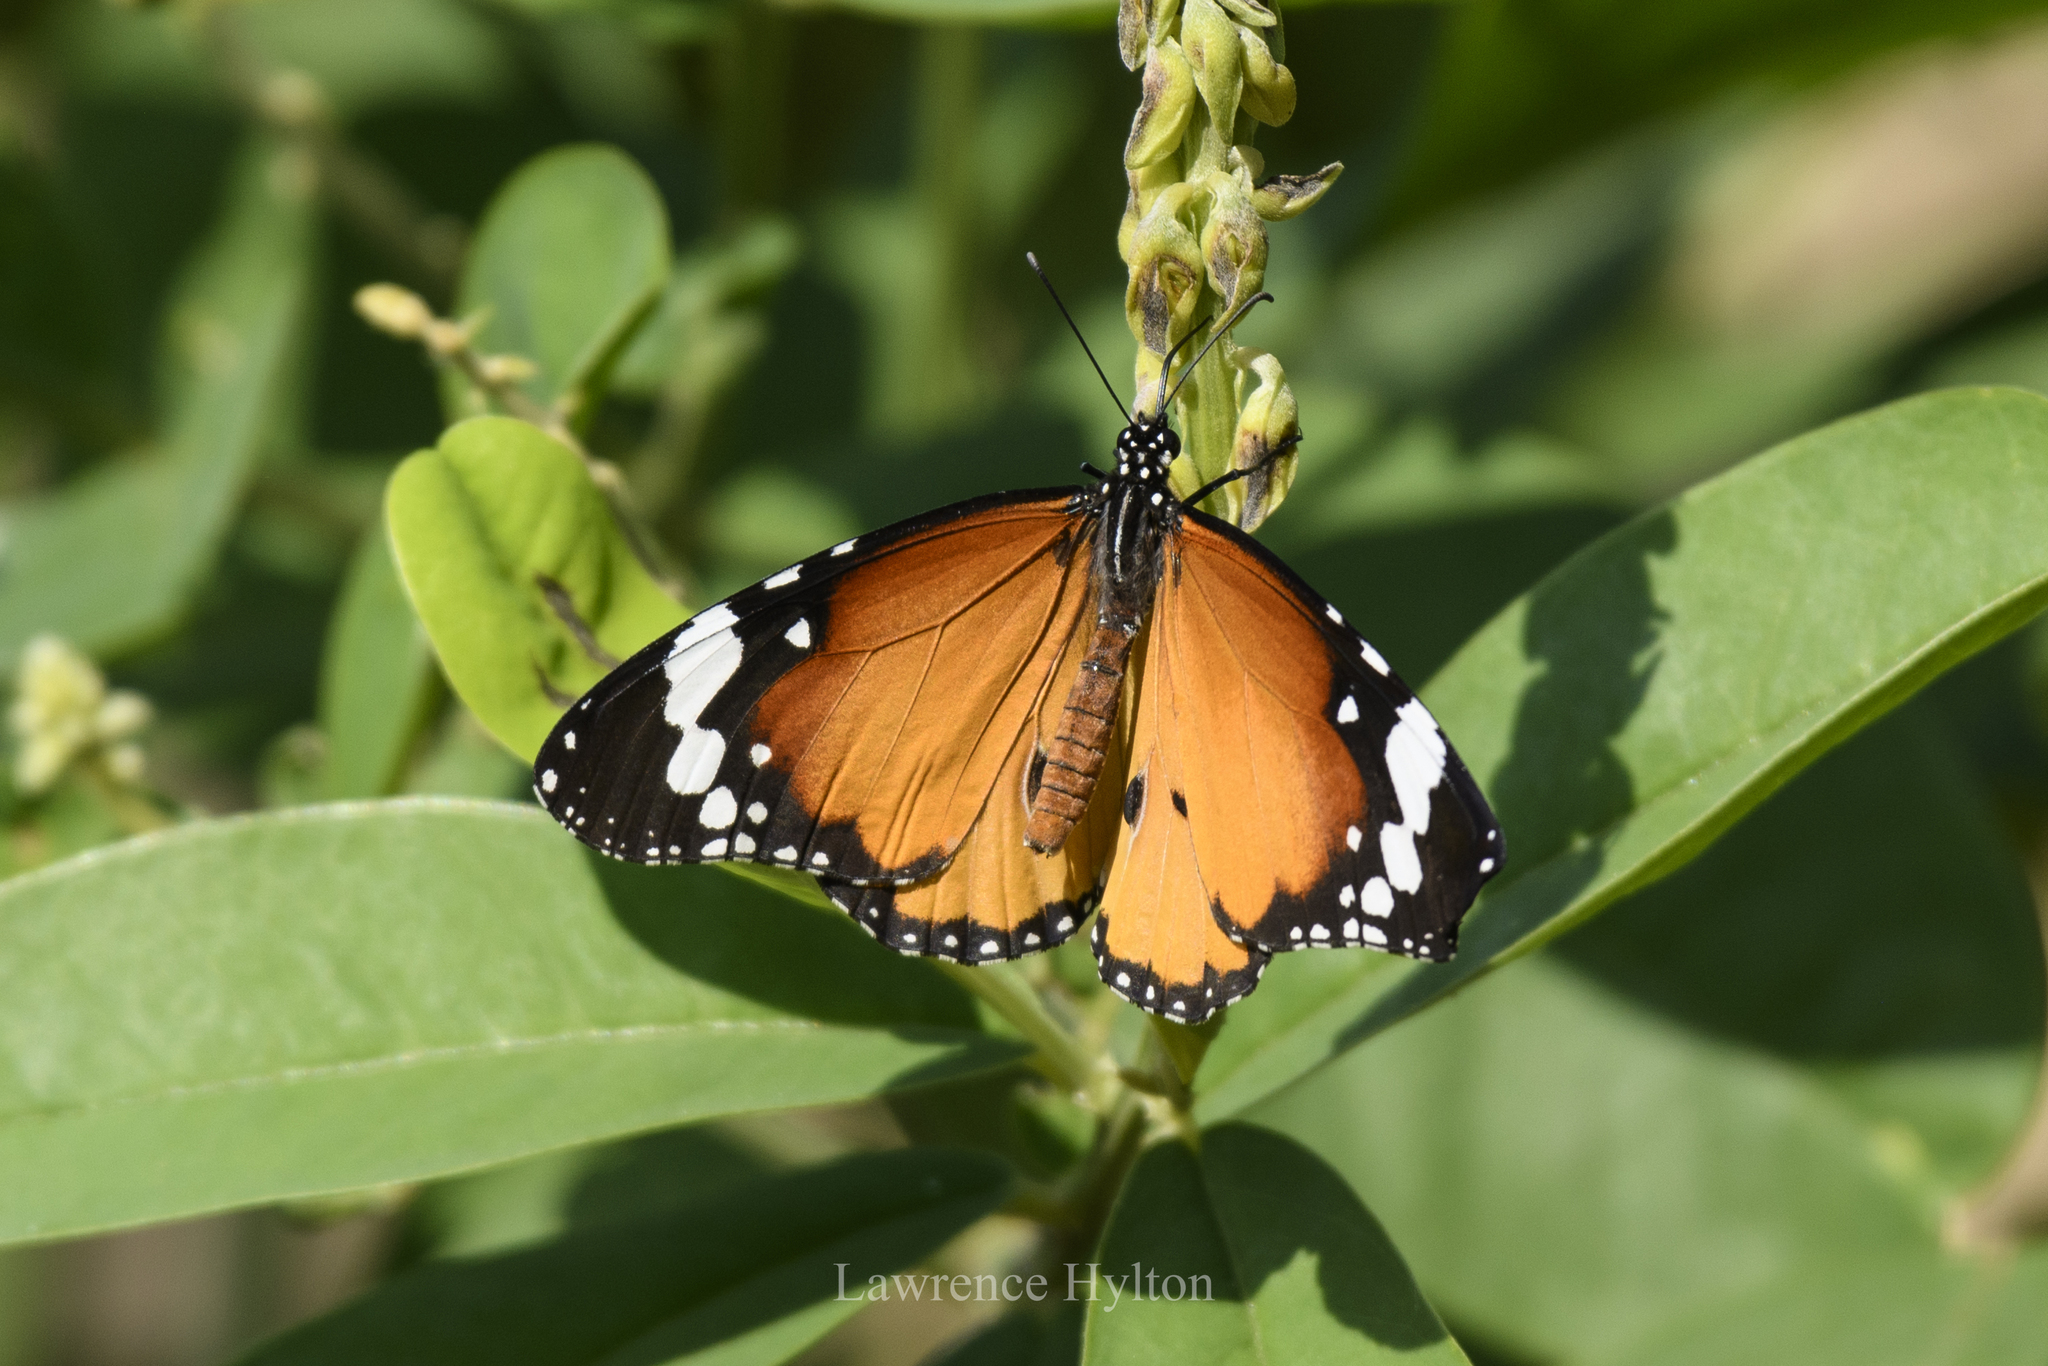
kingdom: Animalia
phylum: Arthropoda
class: Insecta
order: Lepidoptera
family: Nymphalidae
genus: Danaus
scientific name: Danaus chrysippus
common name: Plain tiger
